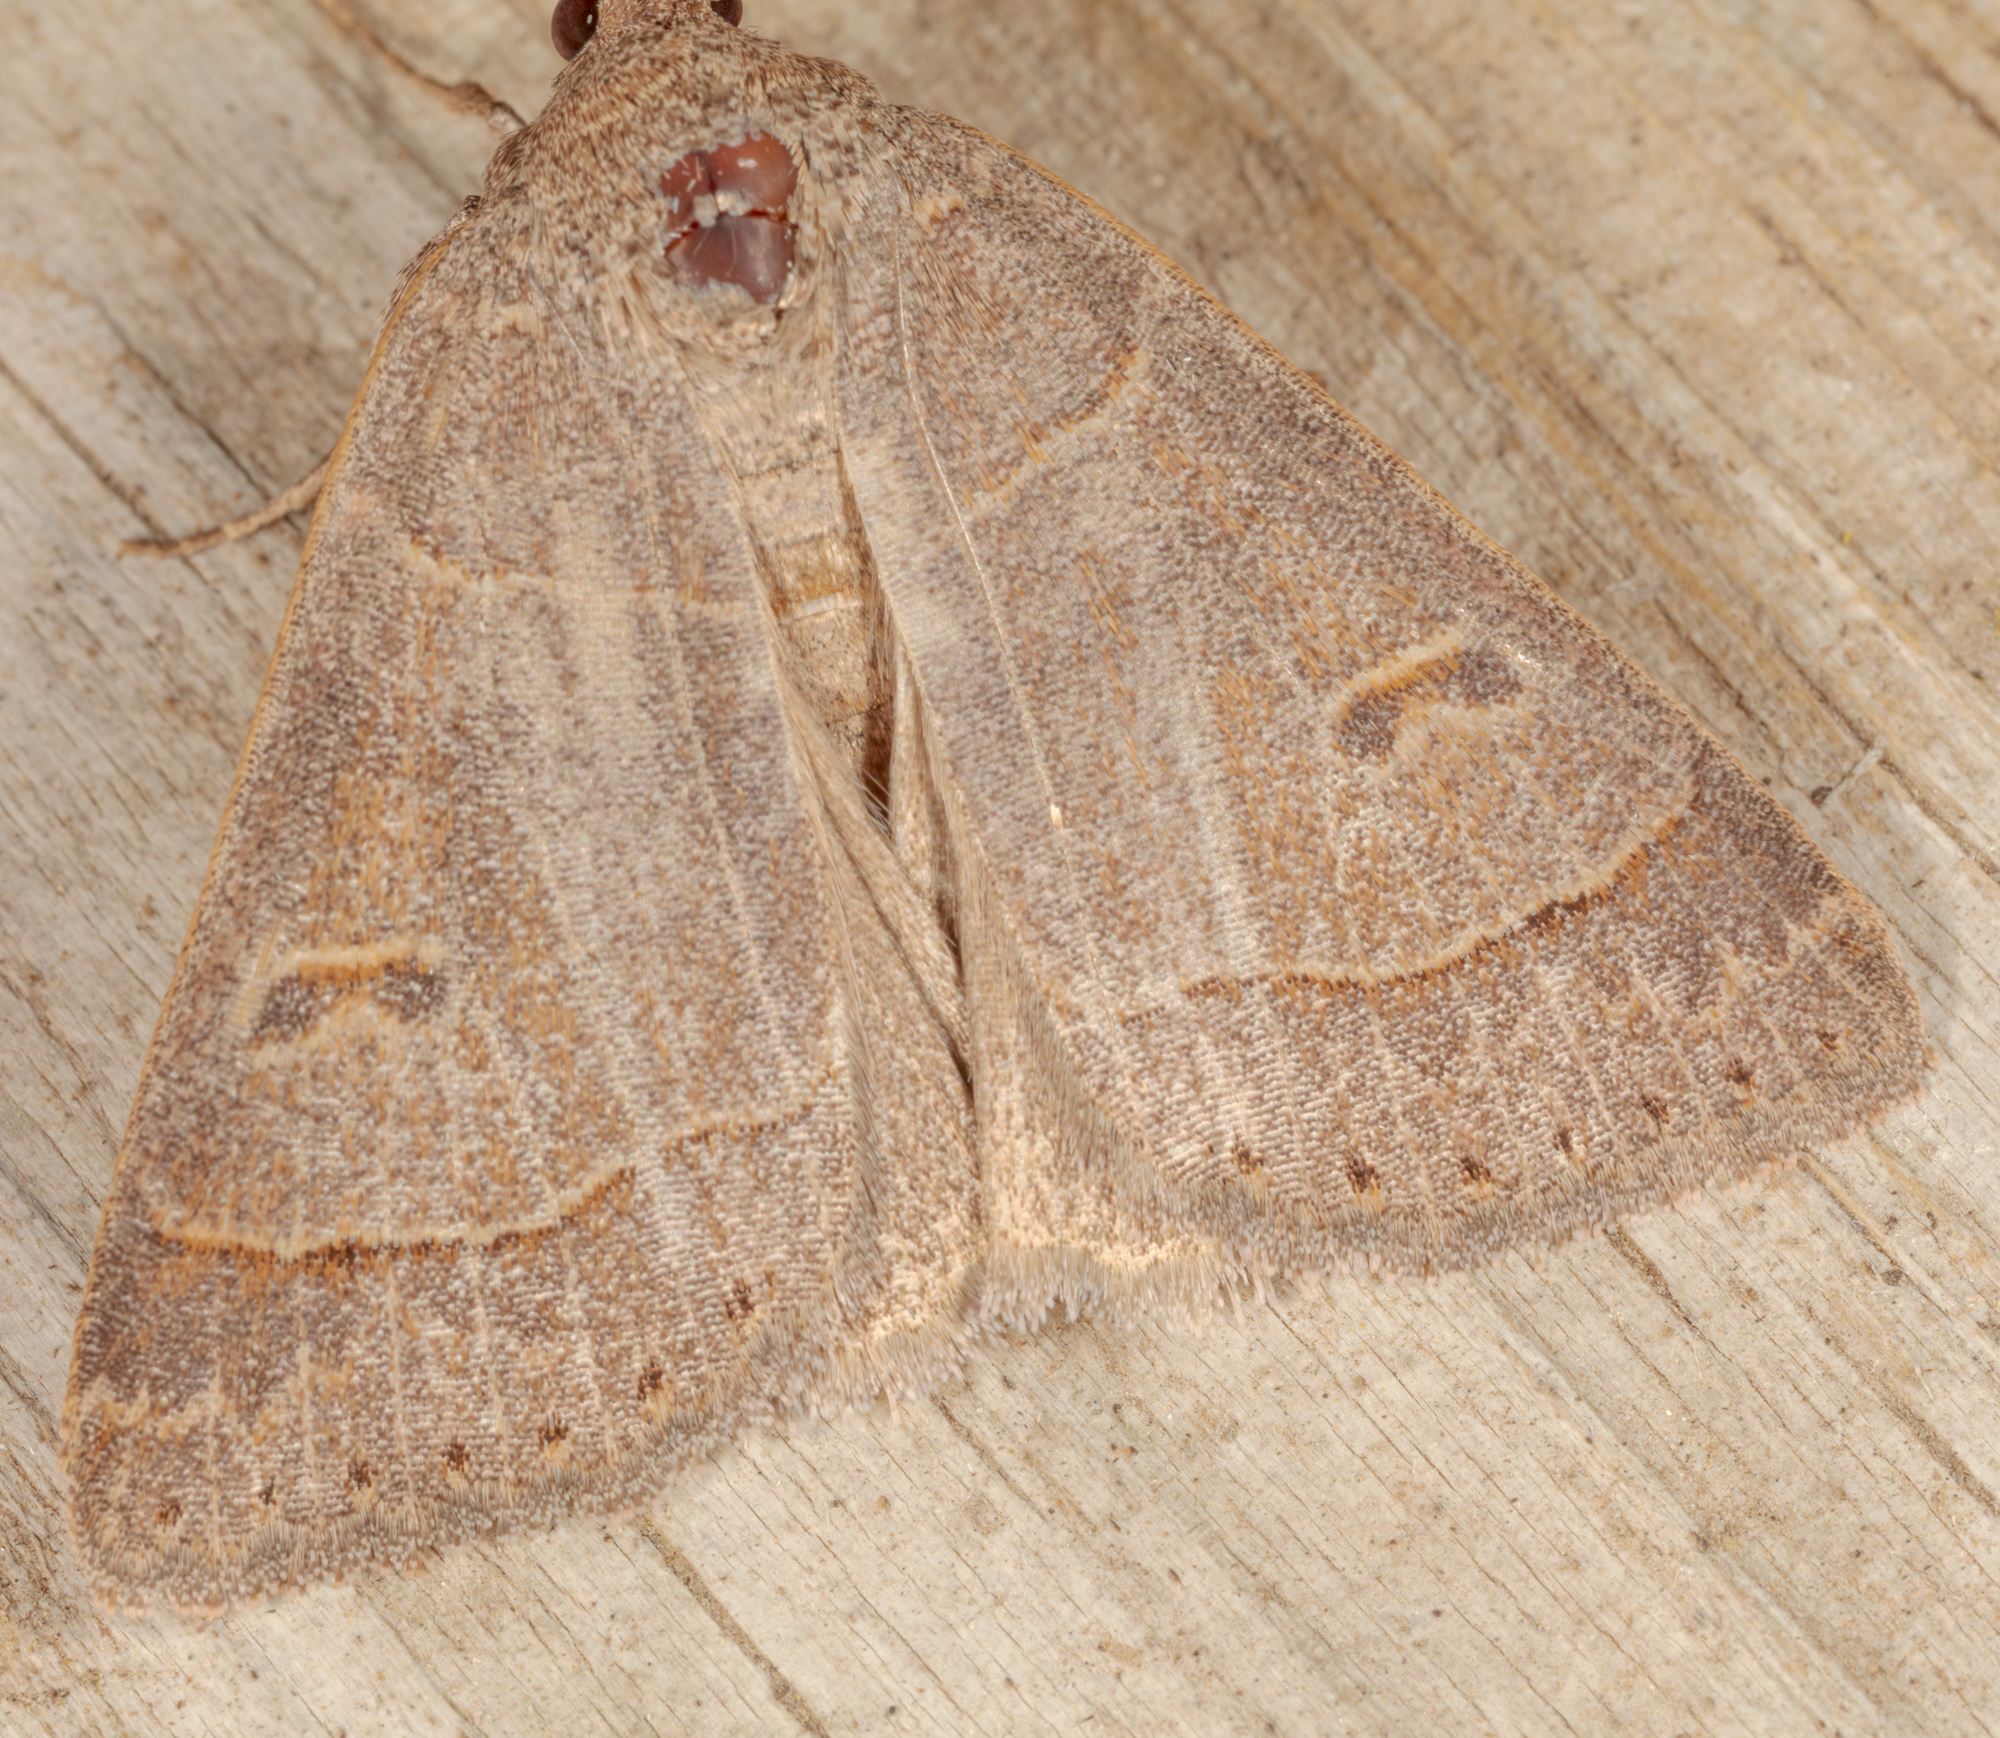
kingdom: Animalia
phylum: Arthropoda
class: Insecta
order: Lepidoptera
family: Erebidae
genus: Phoberia
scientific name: Phoberia atomaris
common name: Common oak moth
